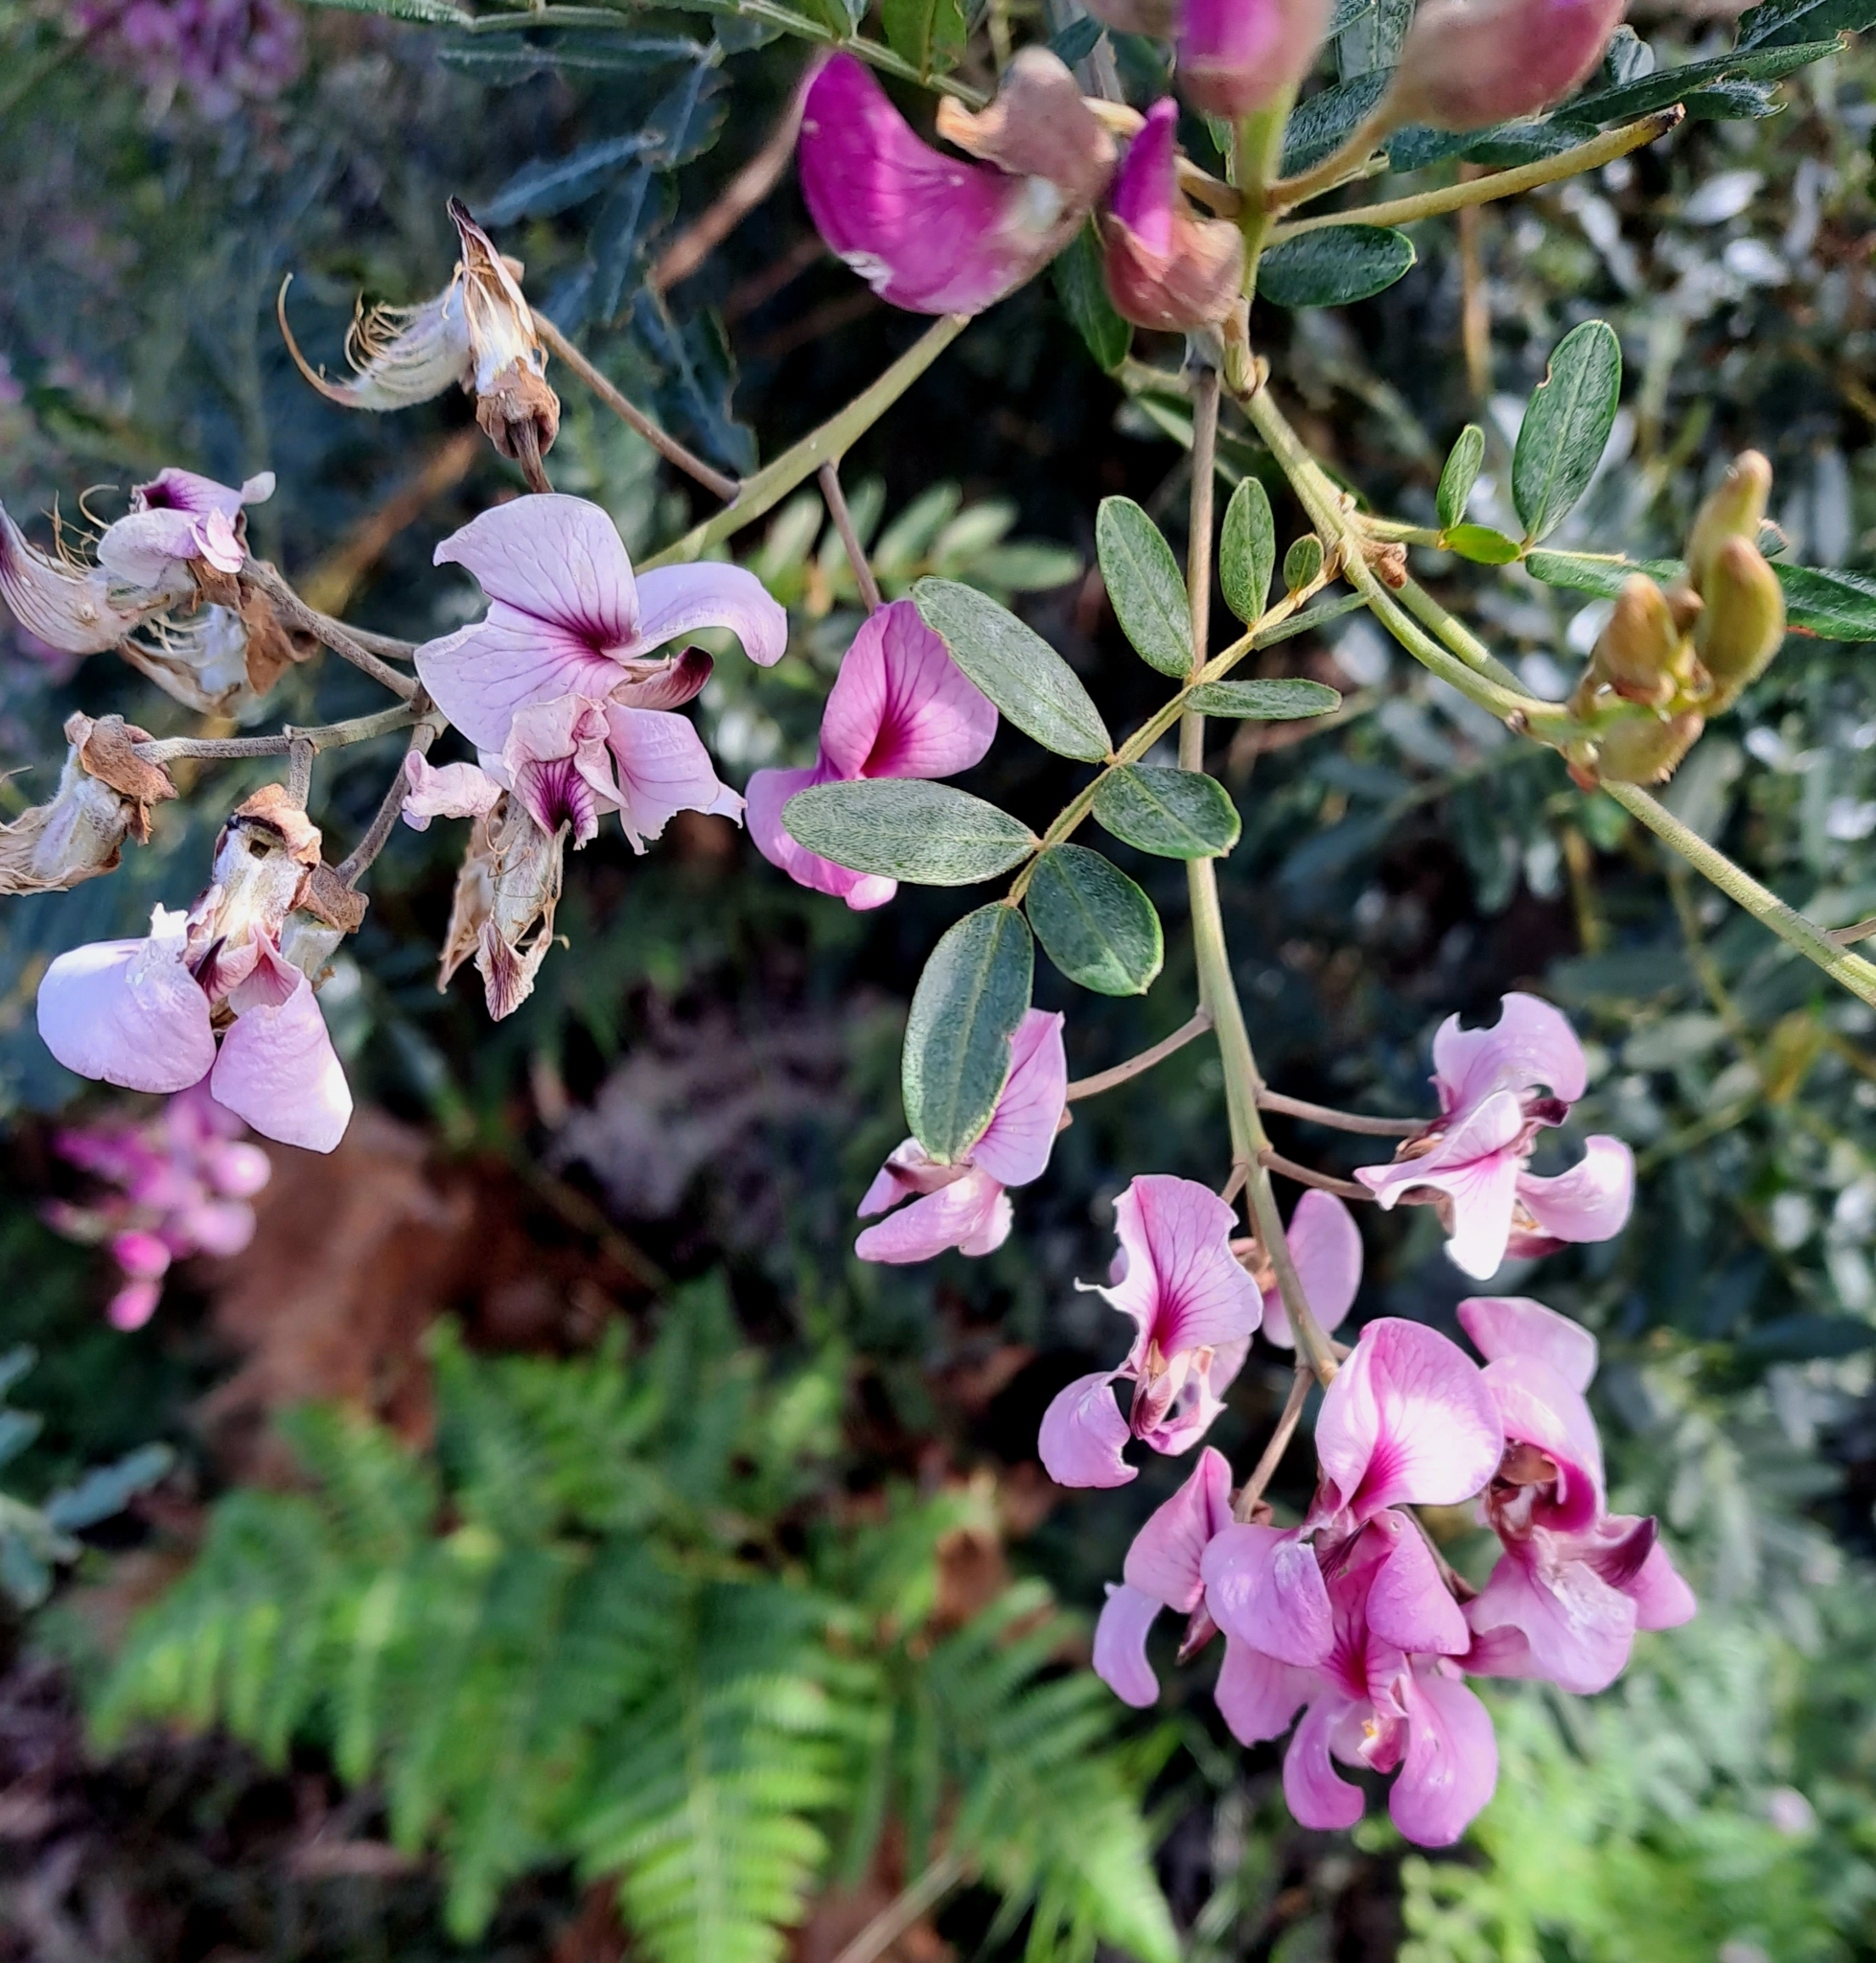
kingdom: Plantae
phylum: Tracheophyta
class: Magnoliopsida
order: Fabales
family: Fabaceae
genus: Virgilia
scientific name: Virgilia oroboides
